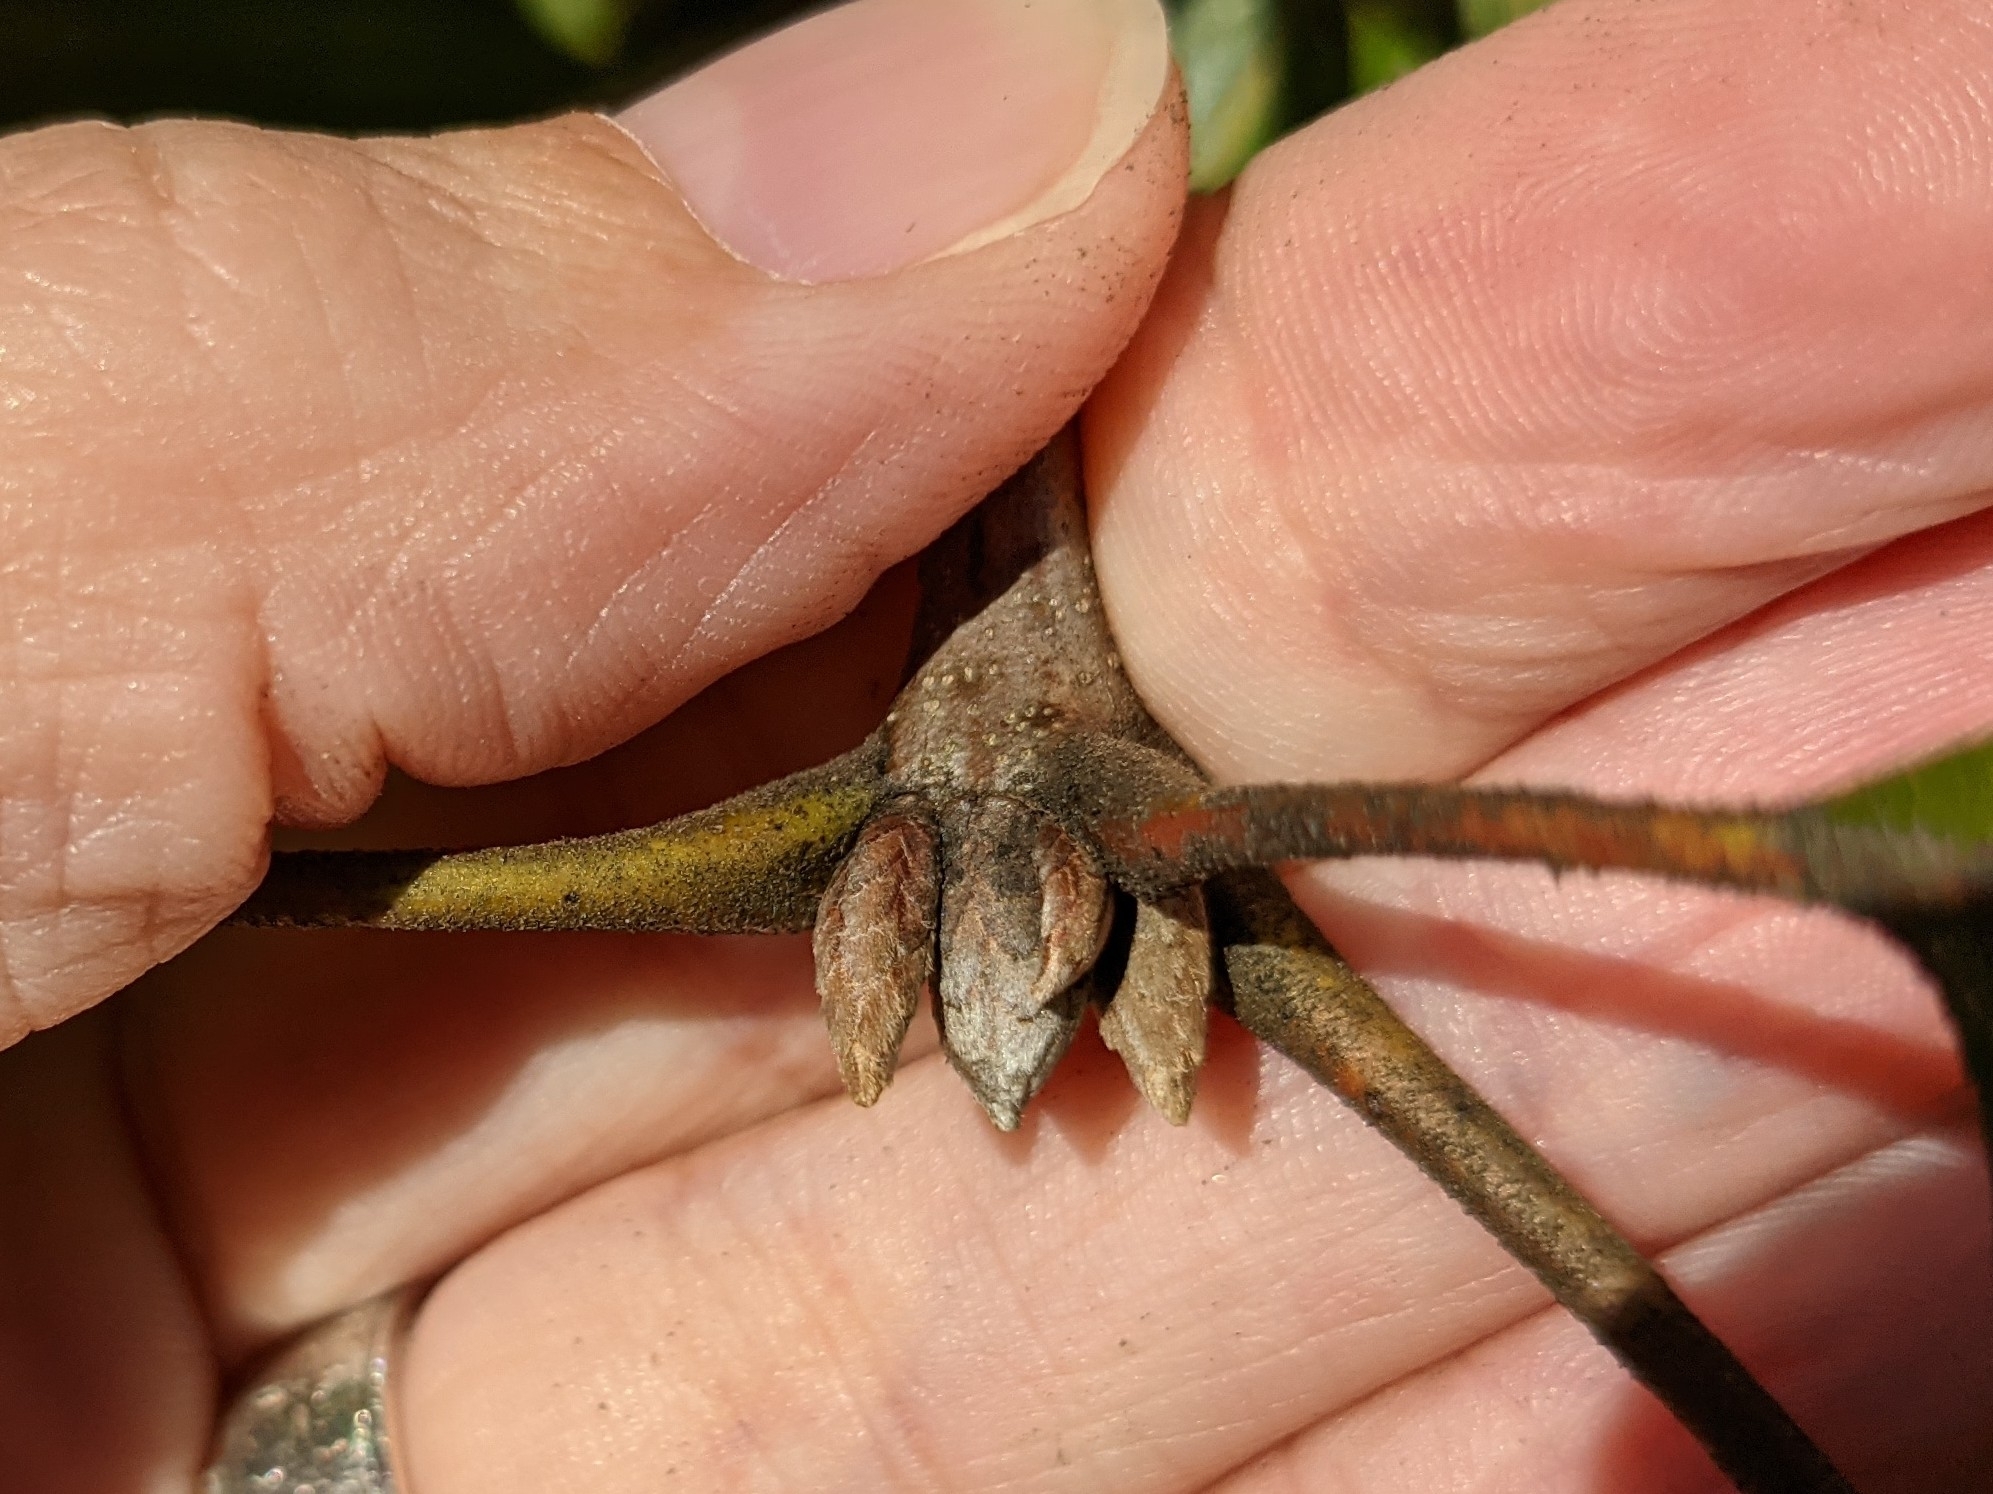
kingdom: Plantae
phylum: Tracheophyta
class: Magnoliopsida
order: Fagales
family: Fagaceae
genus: Quercus
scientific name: Quercus velutina
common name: Black oak
